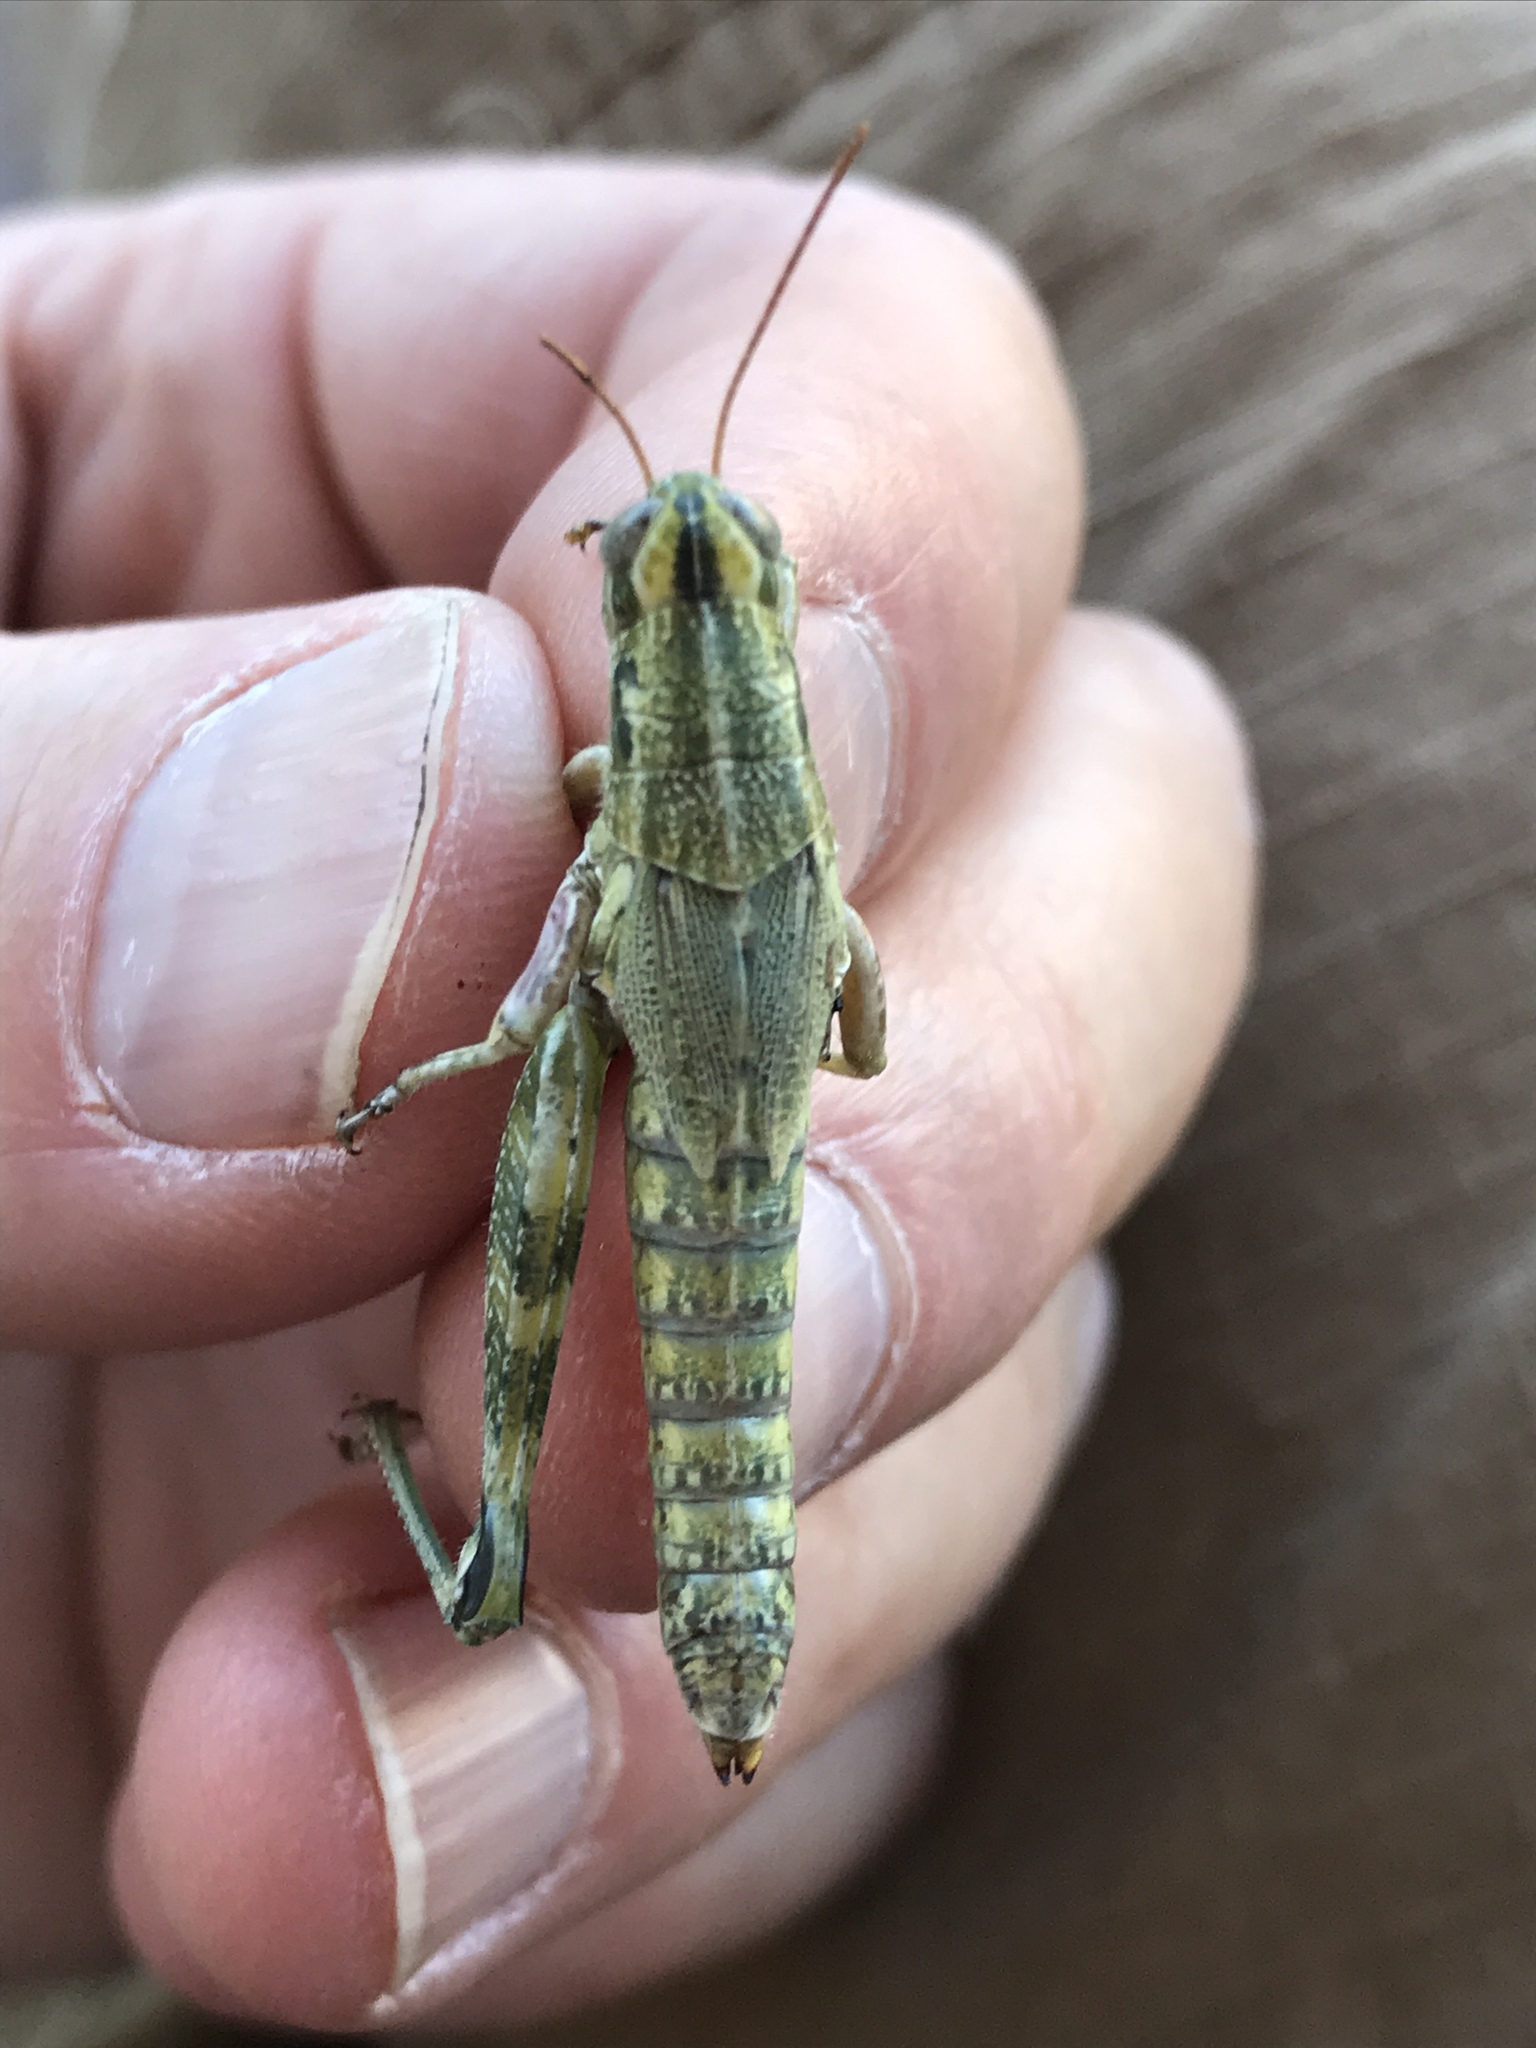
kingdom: Animalia
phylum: Arthropoda
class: Insecta
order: Orthoptera
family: Acrididae
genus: Campylacantha
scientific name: Campylacantha olivacea
